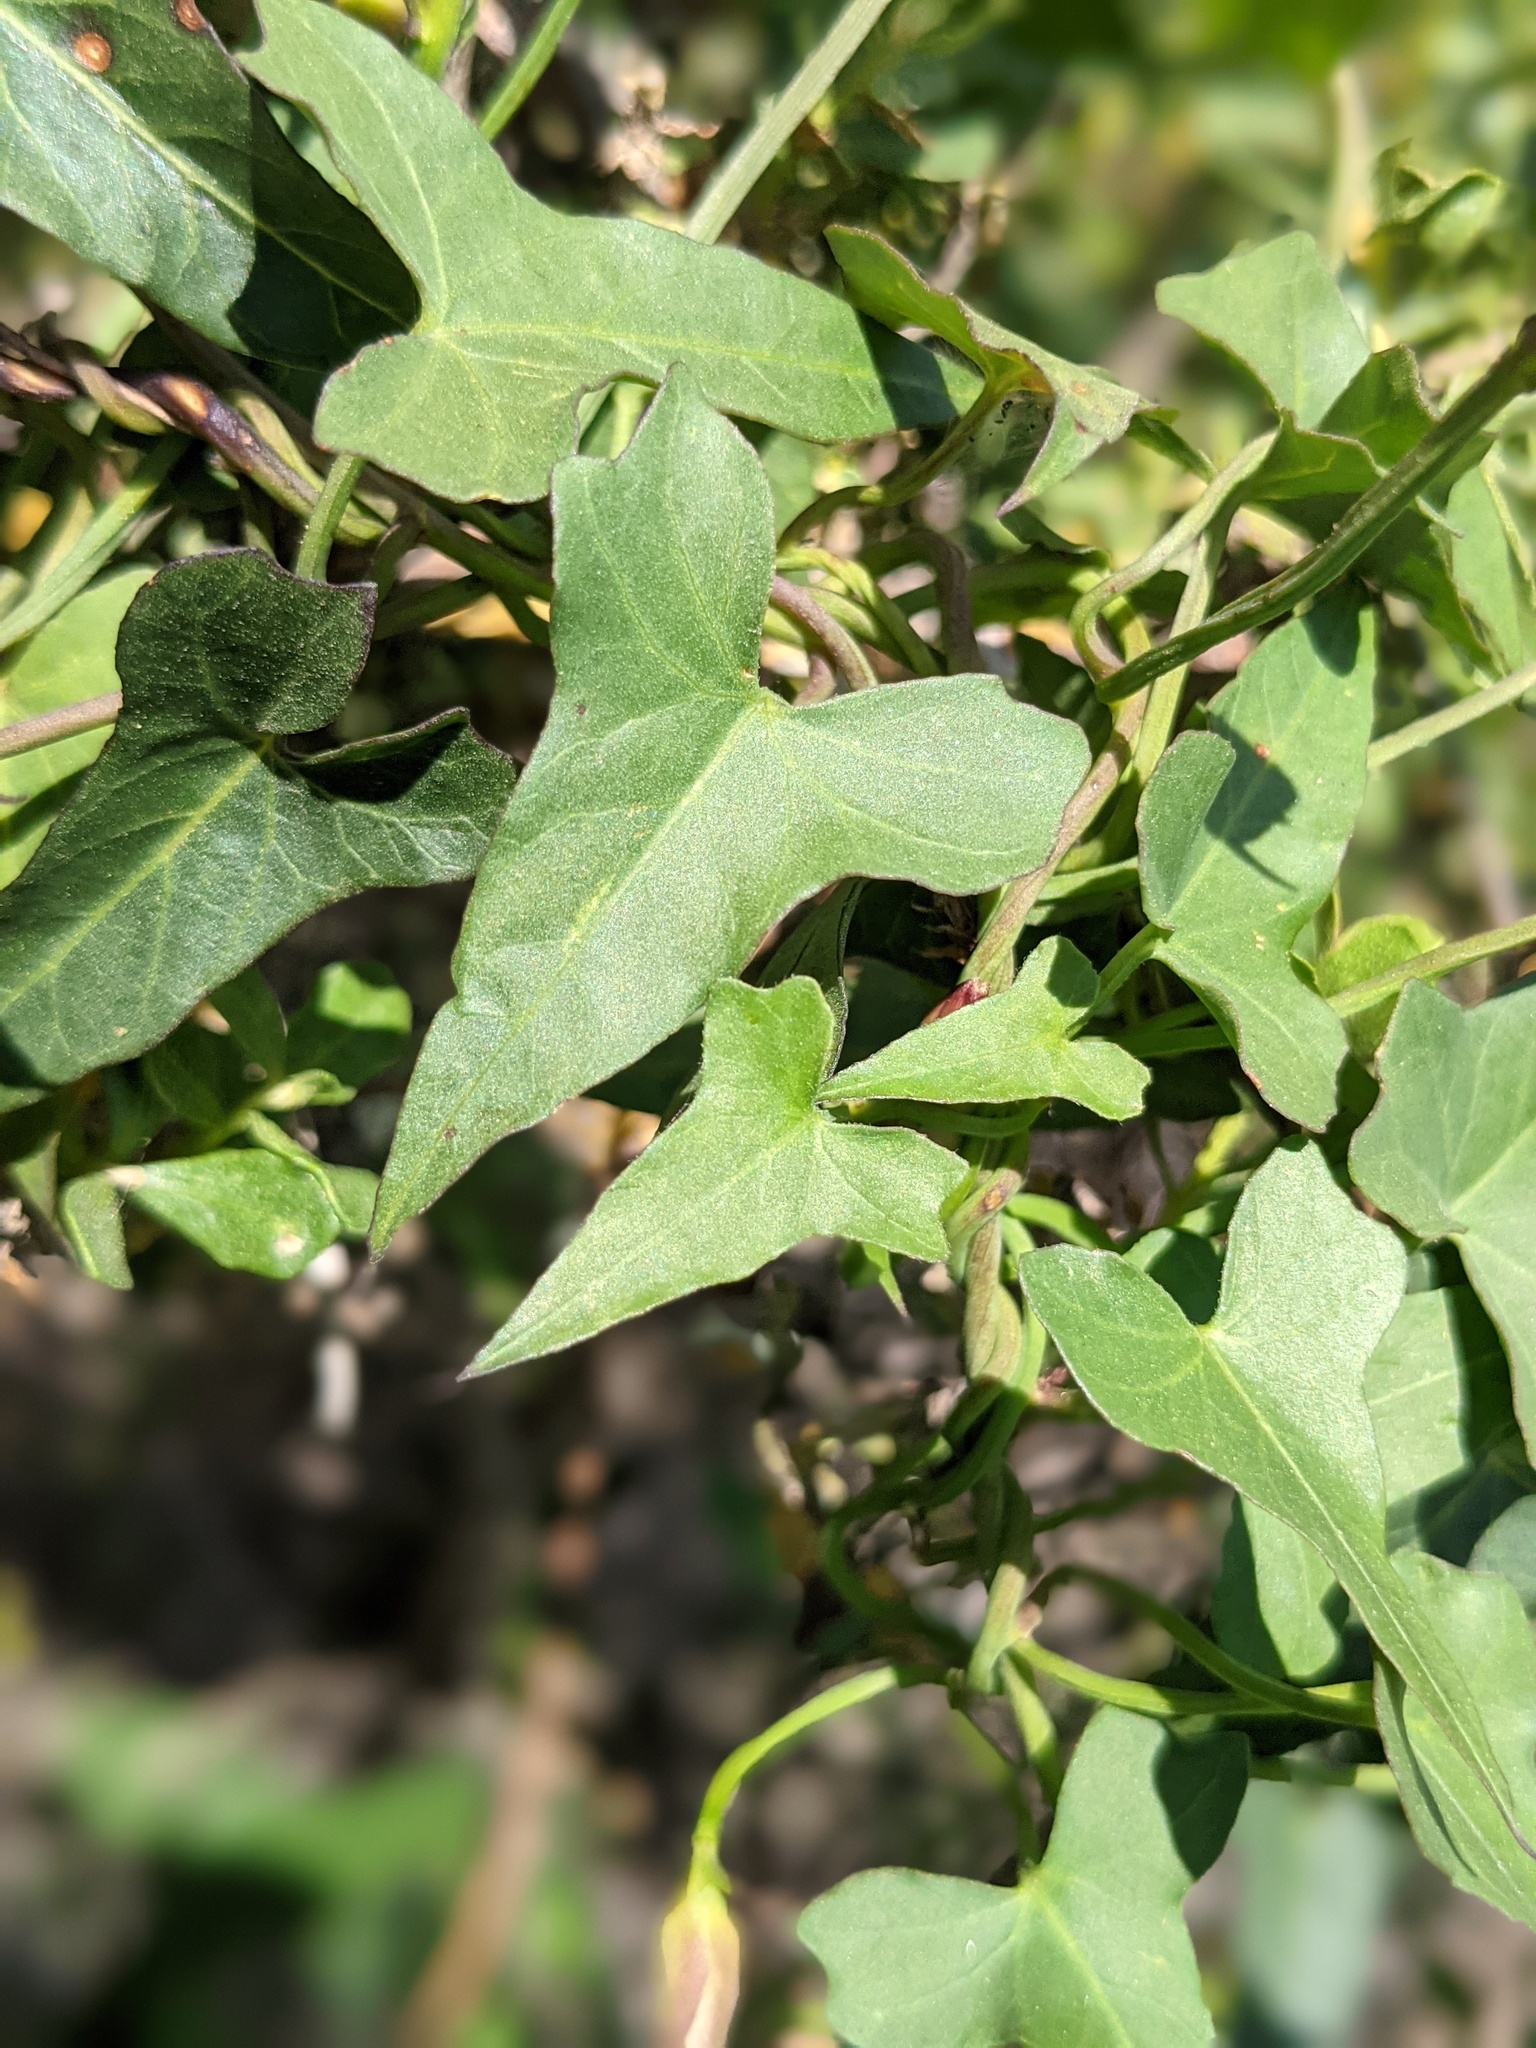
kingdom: Plantae
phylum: Tracheophyta
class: Magnoliopsida
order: Solanales
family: Convolvulaceae
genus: Calystegia
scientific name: Calystegia purpurata
